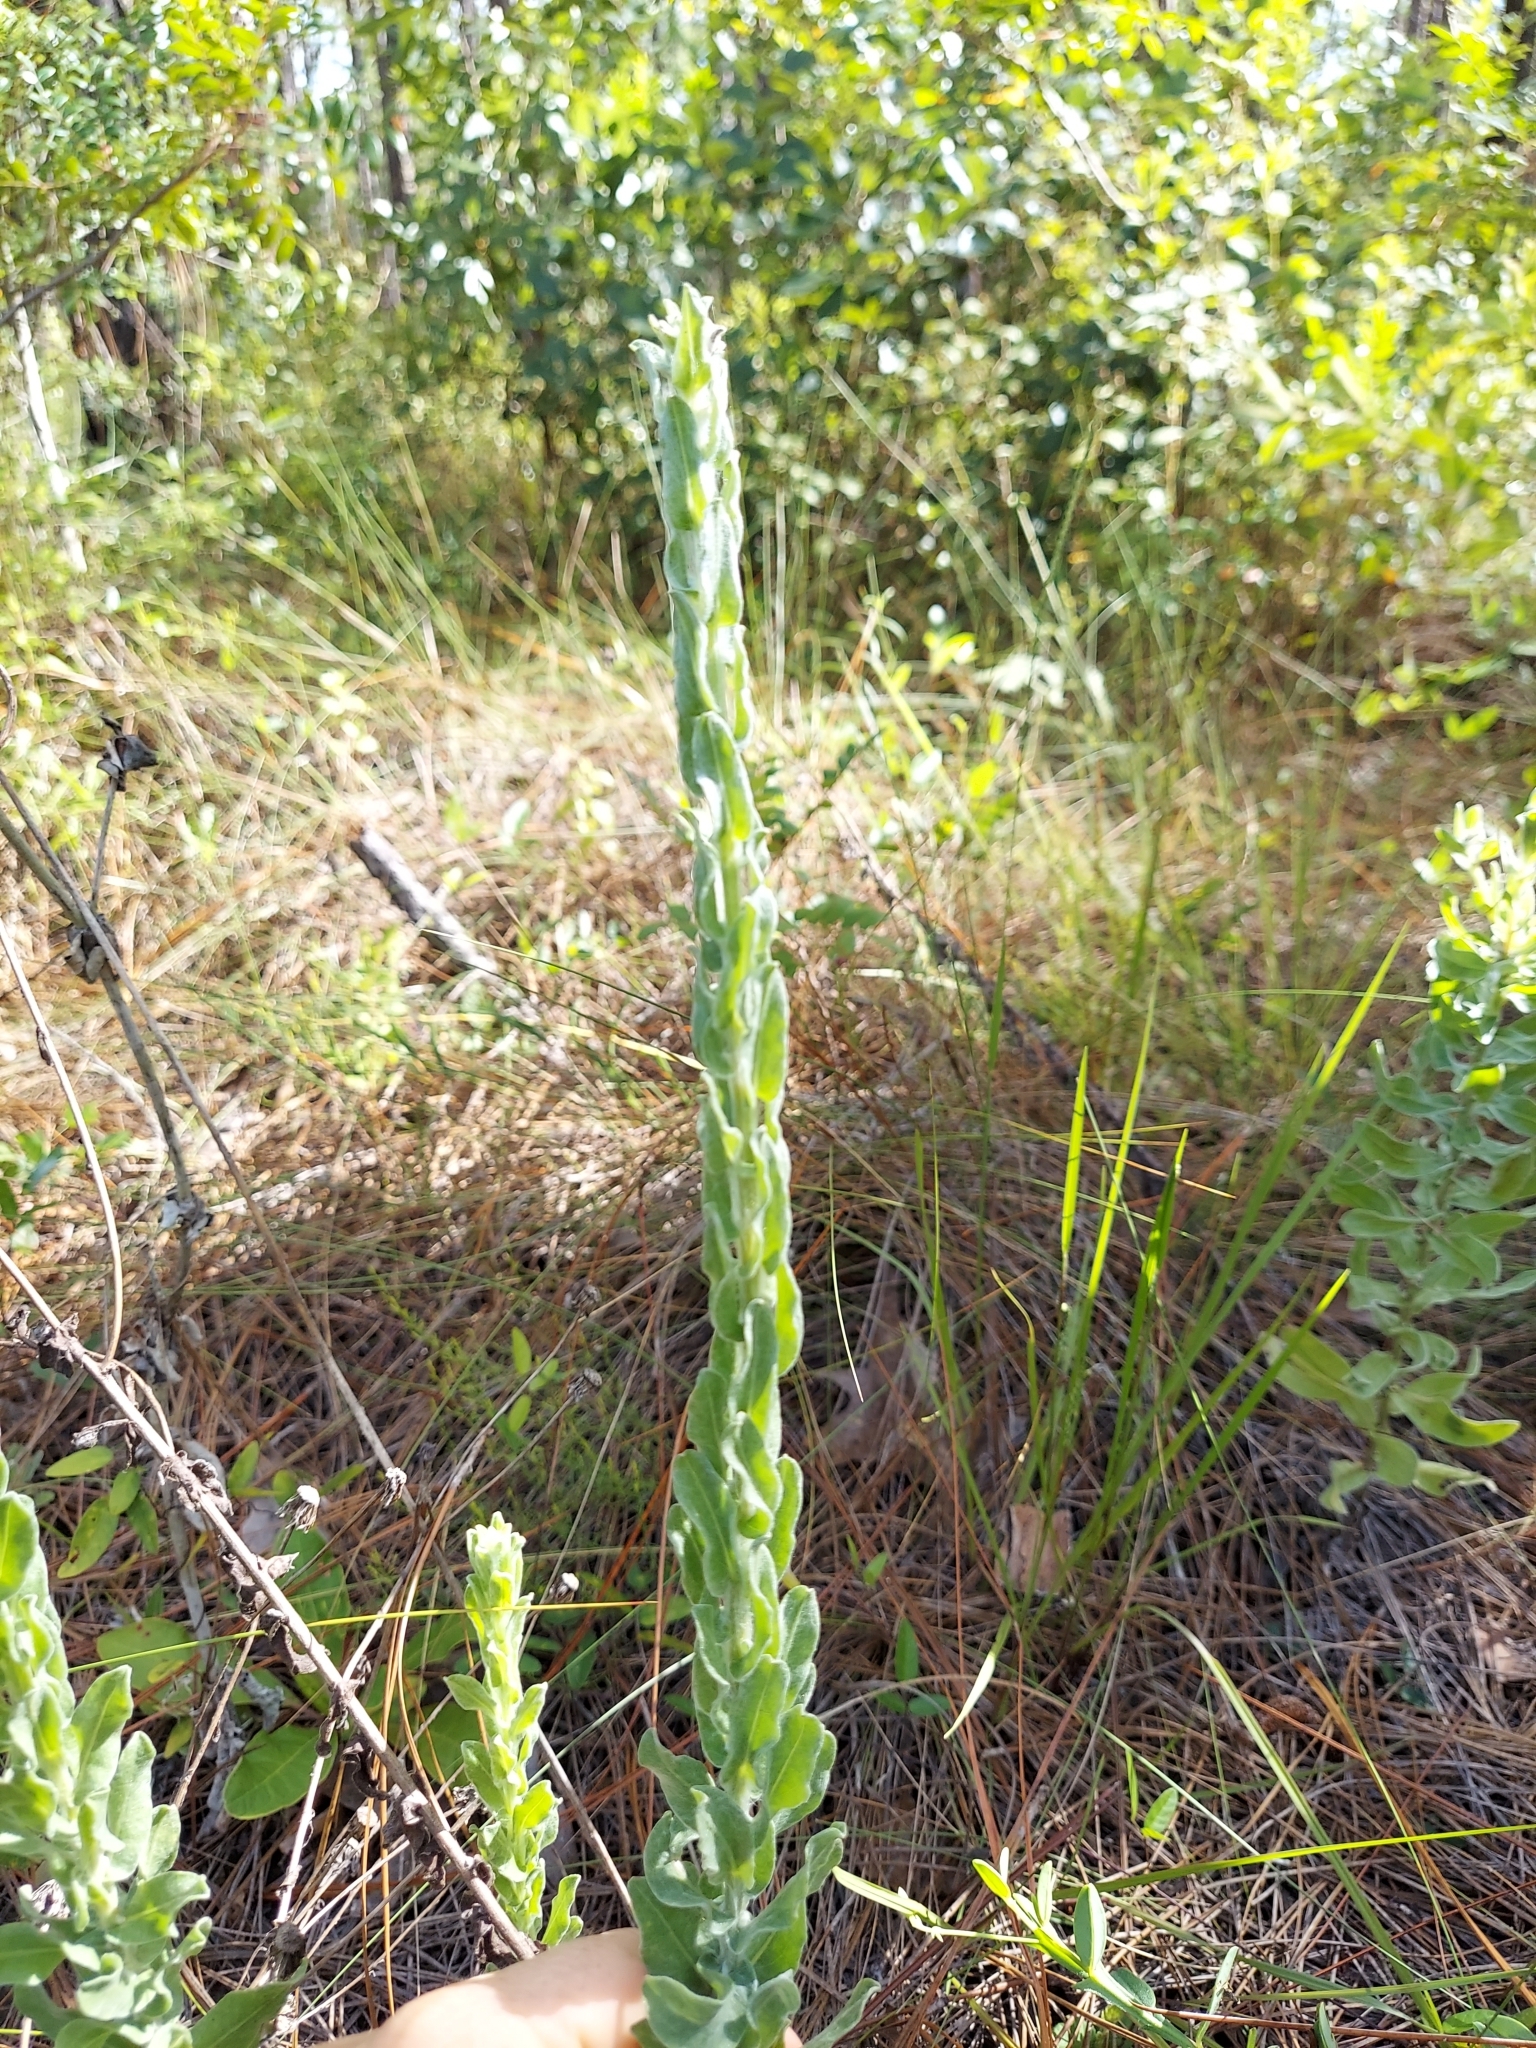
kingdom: Plantae
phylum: Tracheophyta
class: Magnoliopsida
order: Asterales
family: Asteraceae
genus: Chrysopsis
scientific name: Chrysopsis latisquamea
